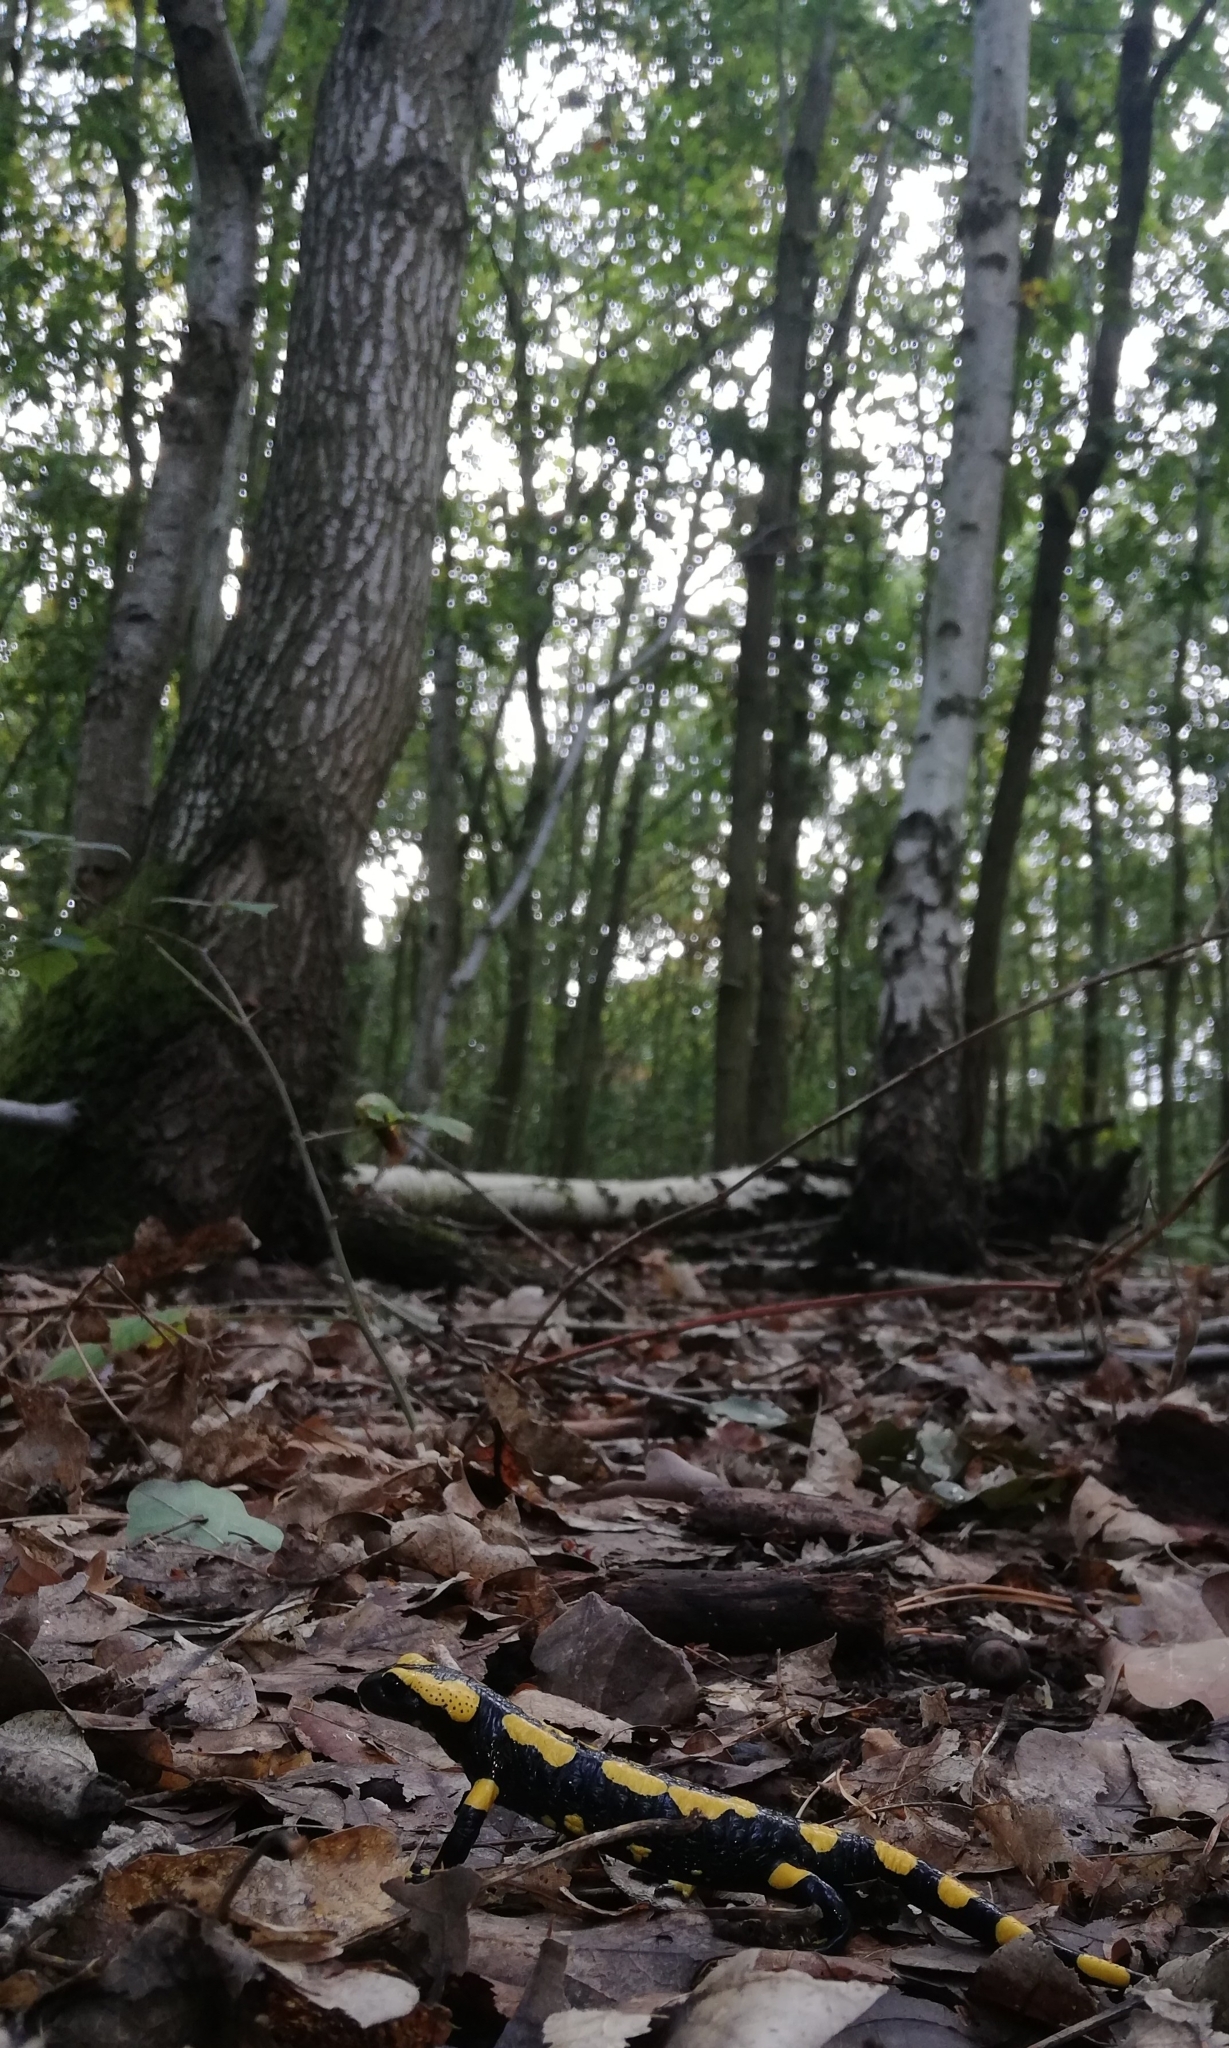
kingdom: Animalia
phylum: Chordata
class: Amphibia
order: Caudata
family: Salamandridae
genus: Salamandra
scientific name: Salamandra salamandra
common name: Fire salamander
